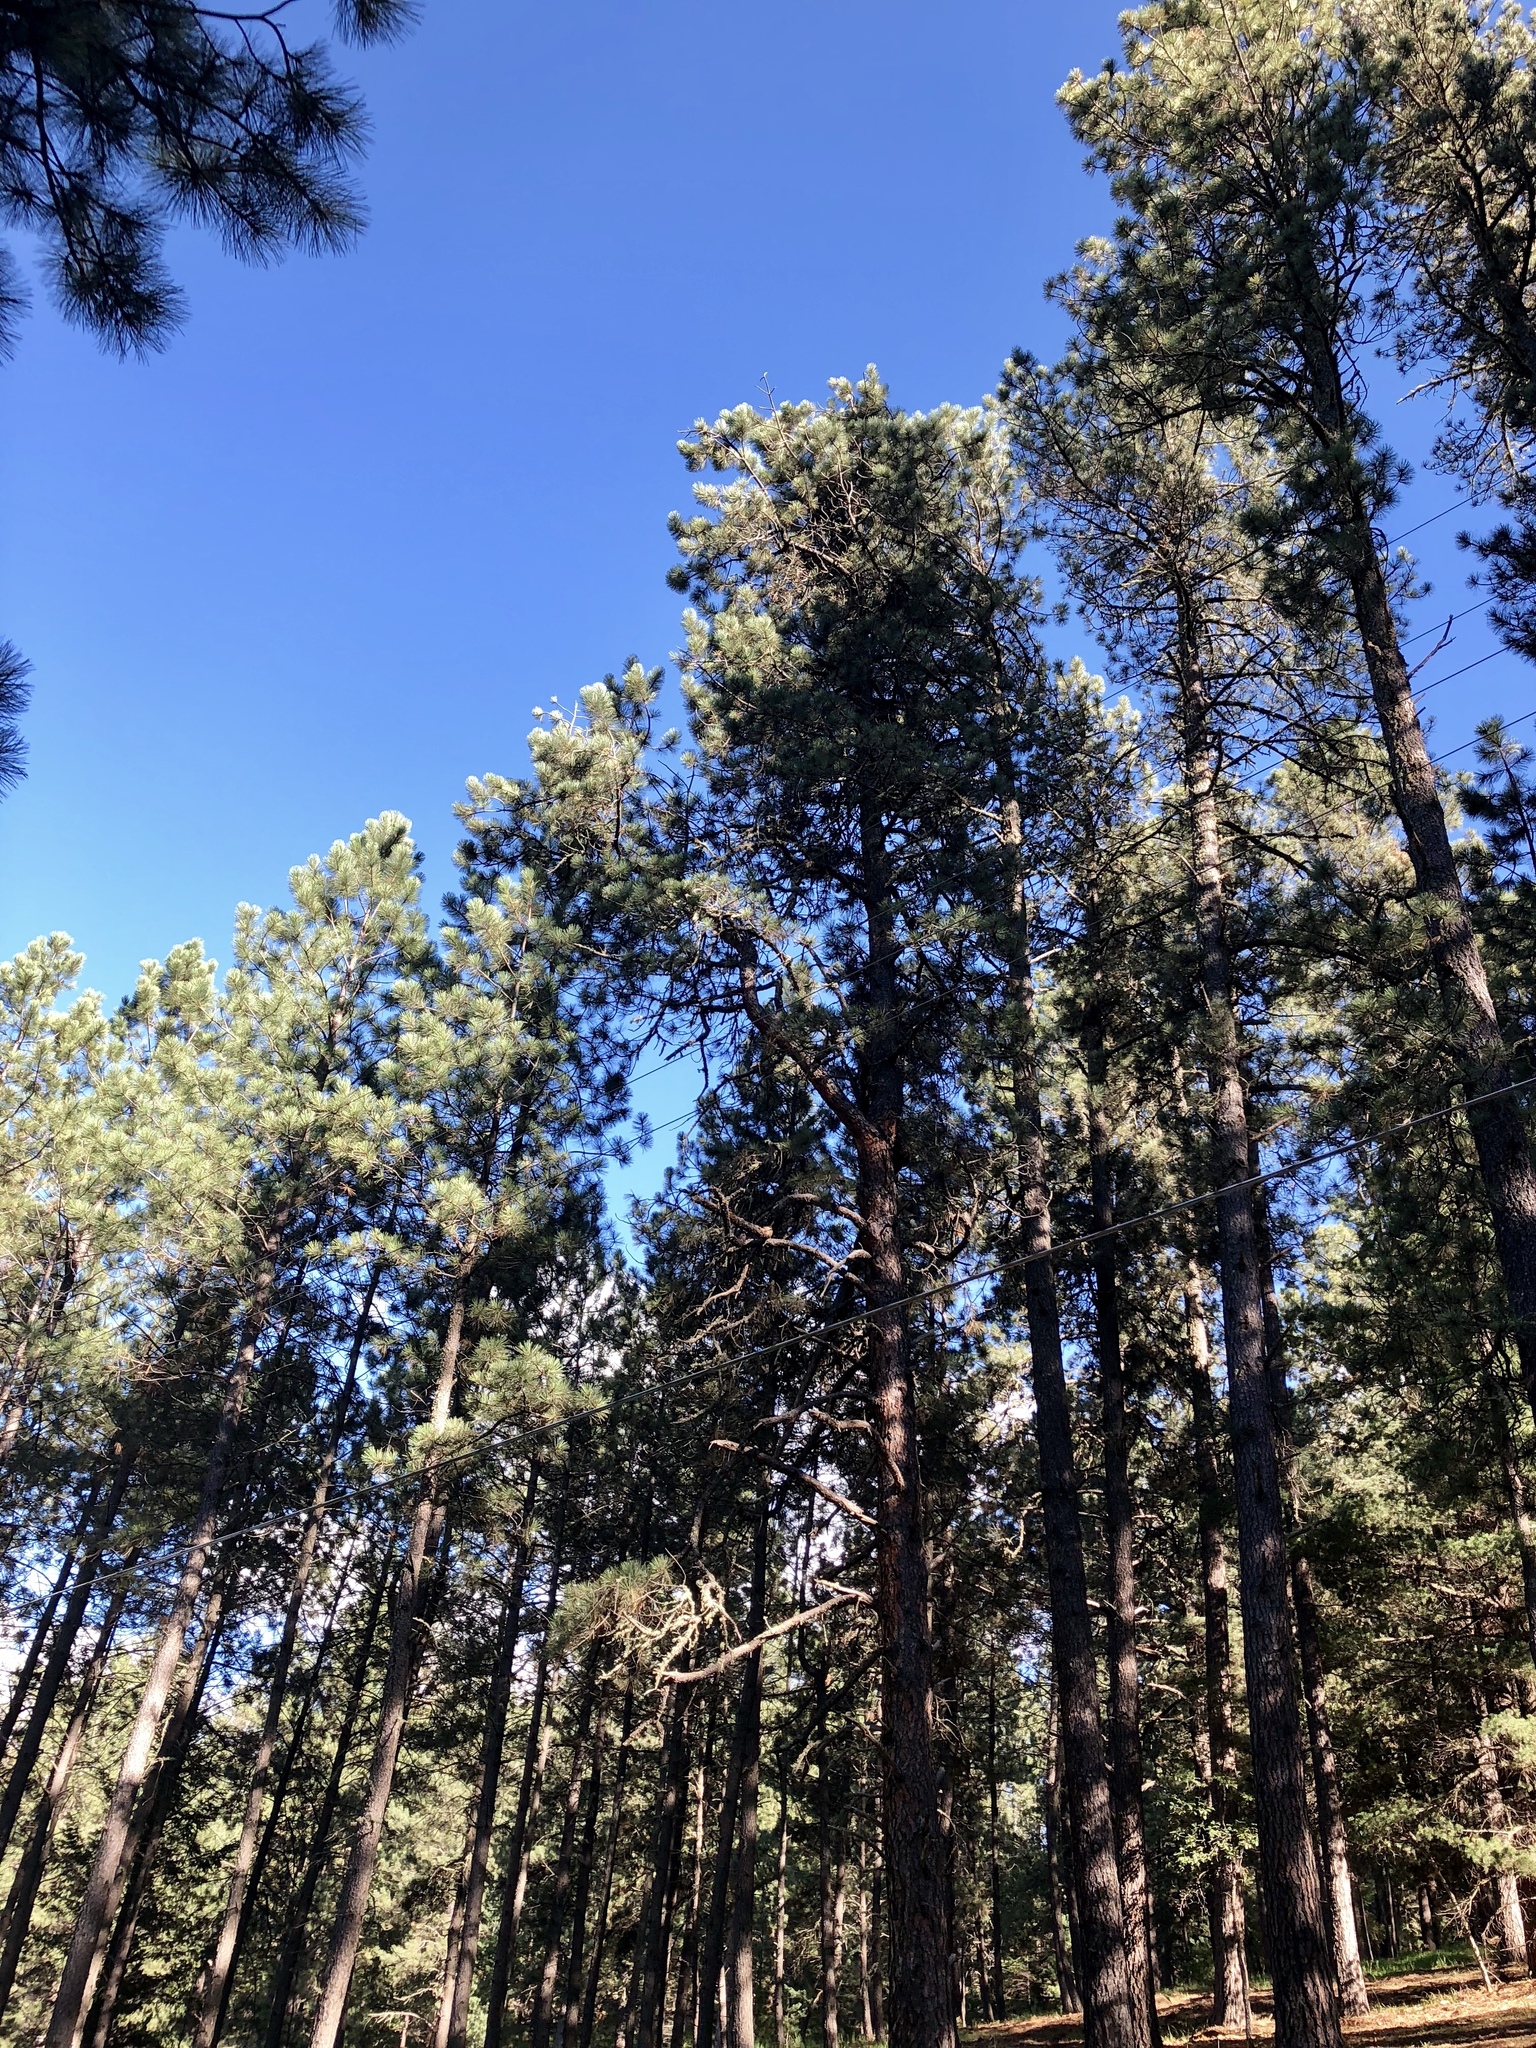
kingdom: Plantae
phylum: Tracheophyta
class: Pinopsida
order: Pinales
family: Pinaceae
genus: Pinus
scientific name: Pinus ponderosa
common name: Western yellow-pine
